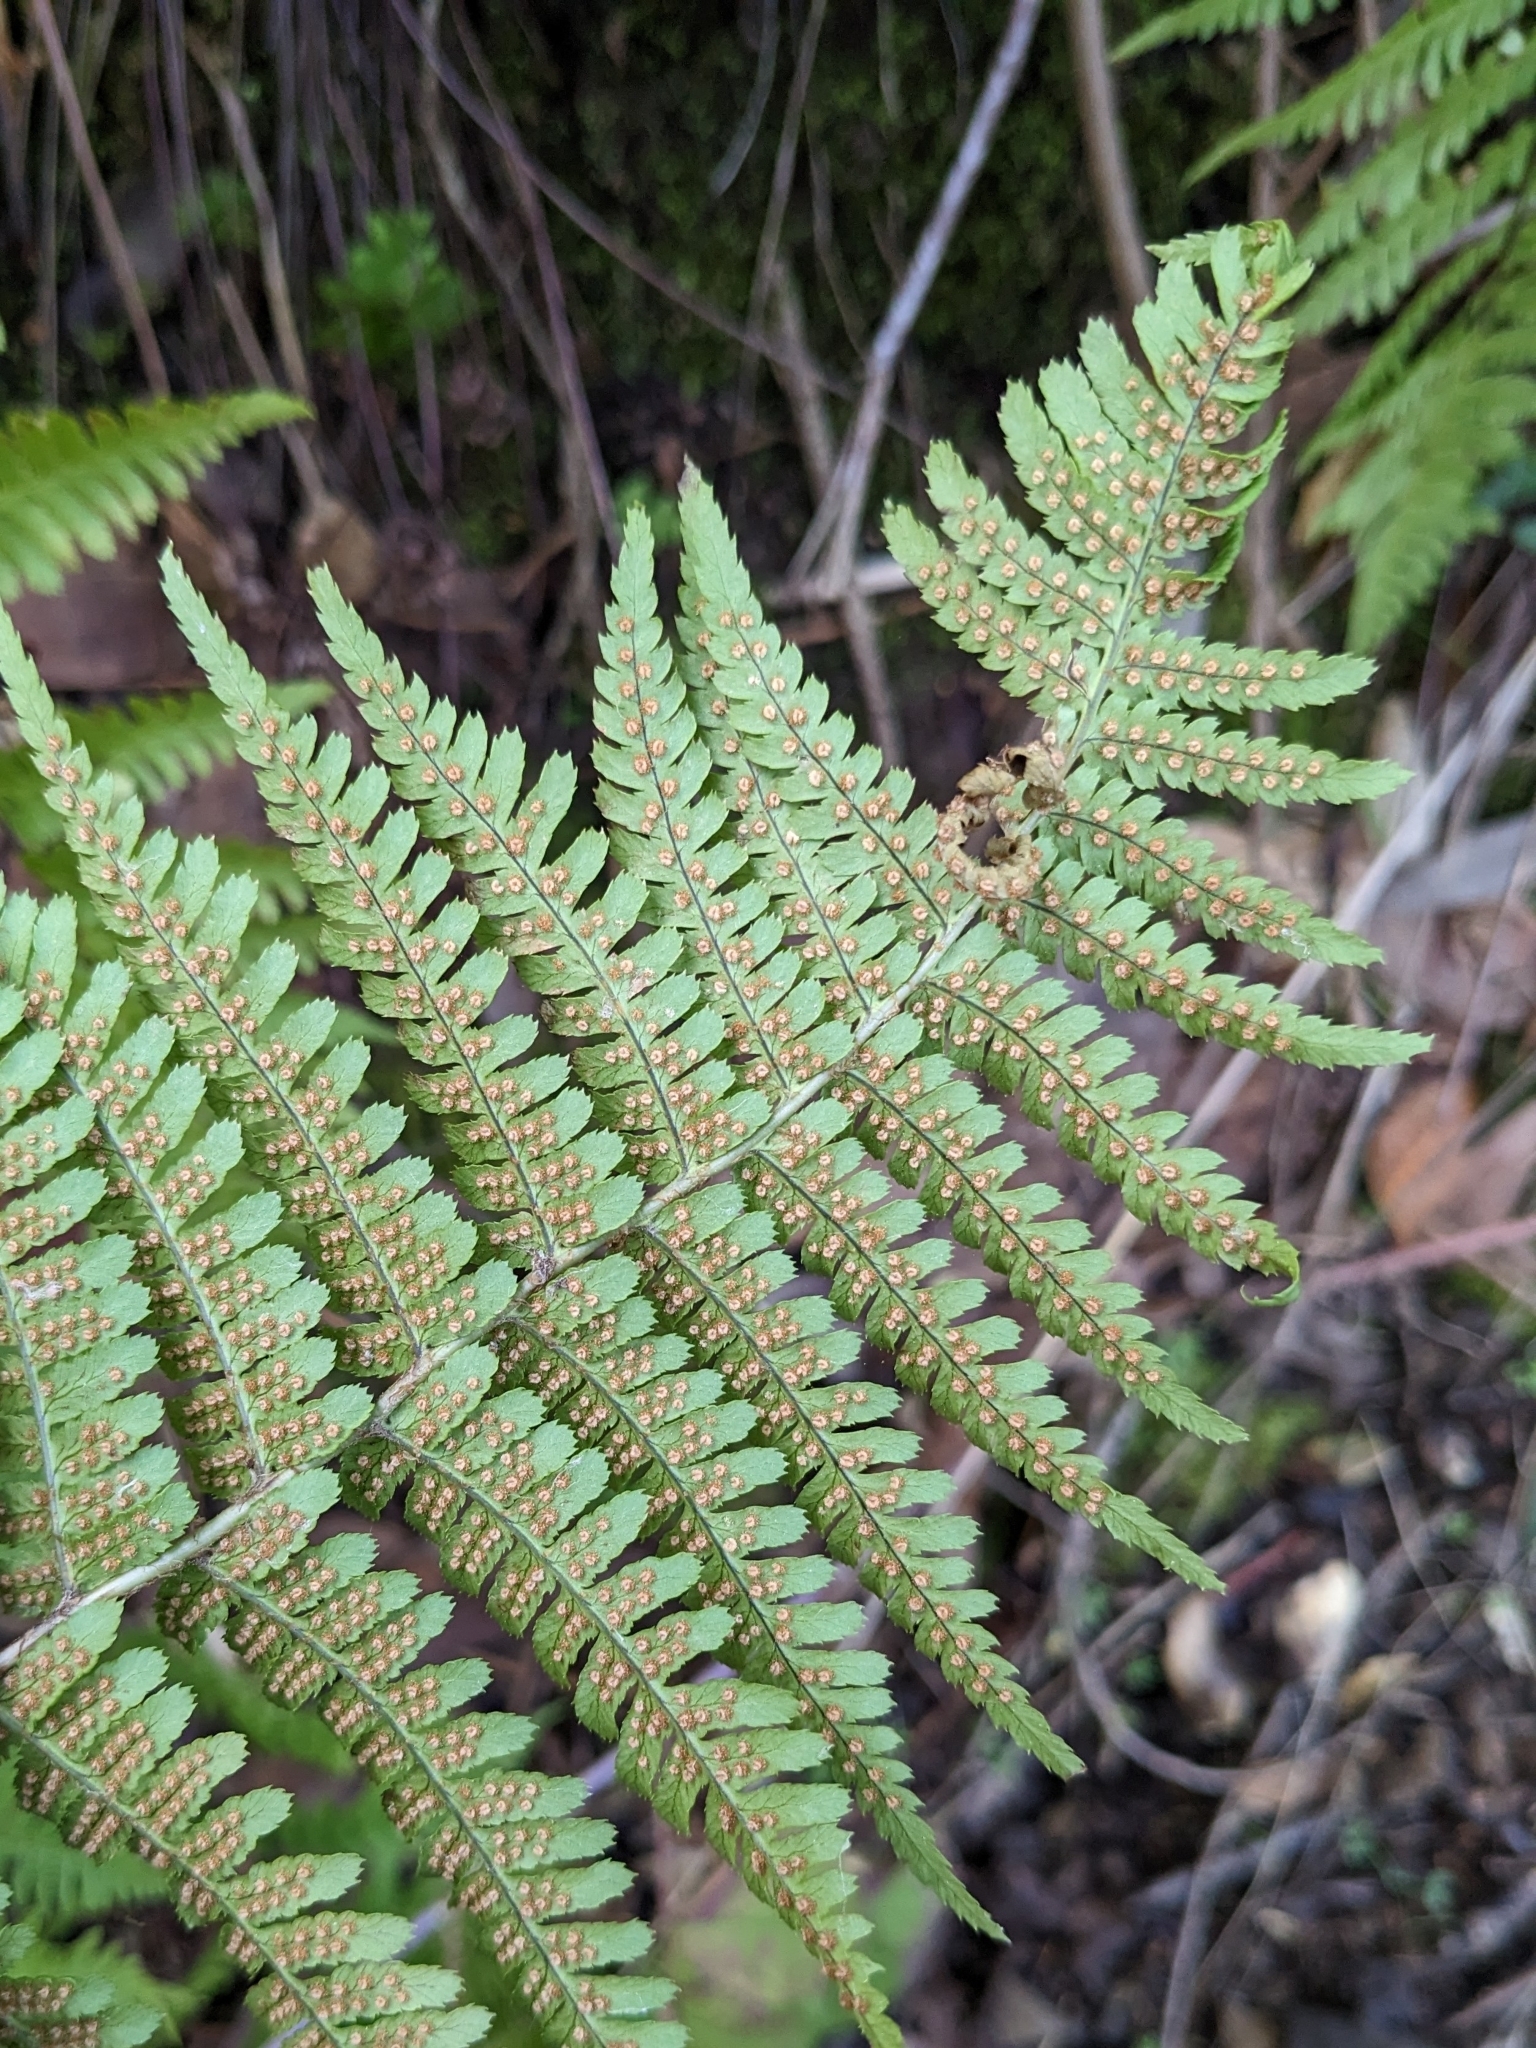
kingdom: Plantae
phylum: Tracheophyta
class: Polypodiopsida
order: Polypodiales
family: Dryopteridaceae
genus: Dryopteris
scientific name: Dryopteris arguta
